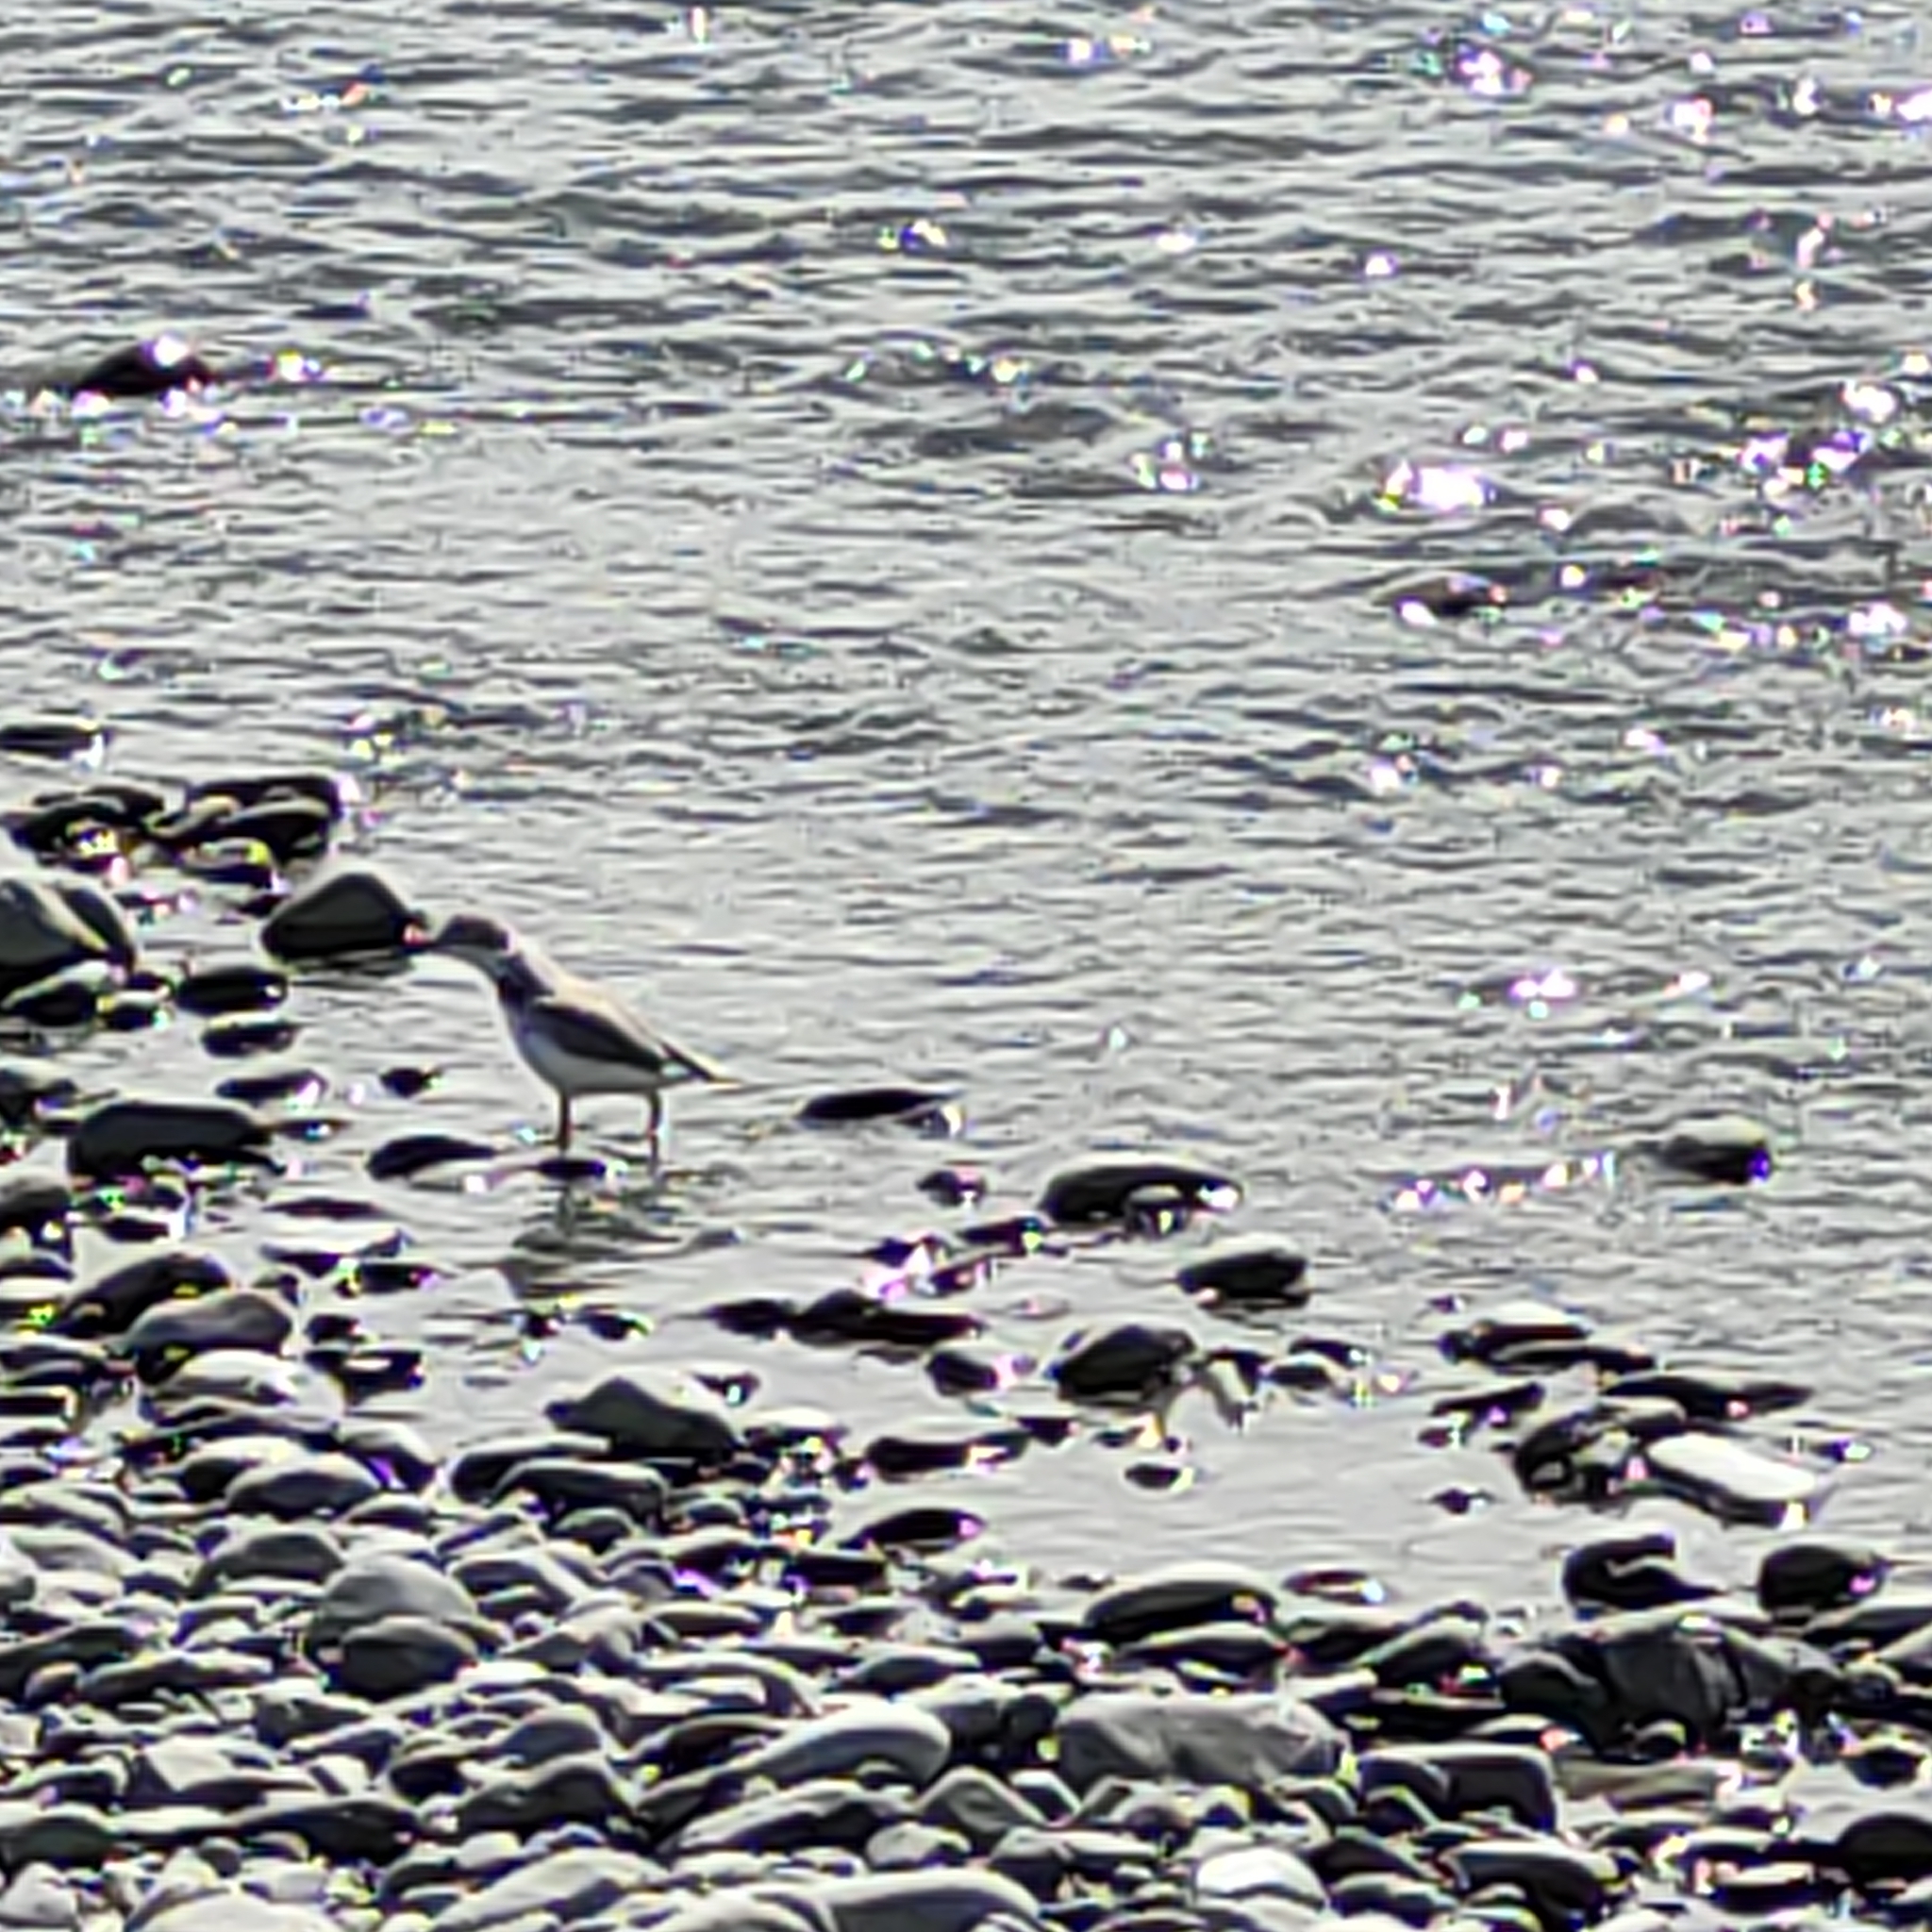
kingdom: Animalia
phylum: Chordata
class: Aves
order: Charadriiformes
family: Charadriidae
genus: Anarhynchus
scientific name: Anarhynchus frontalis
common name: Wrybill
